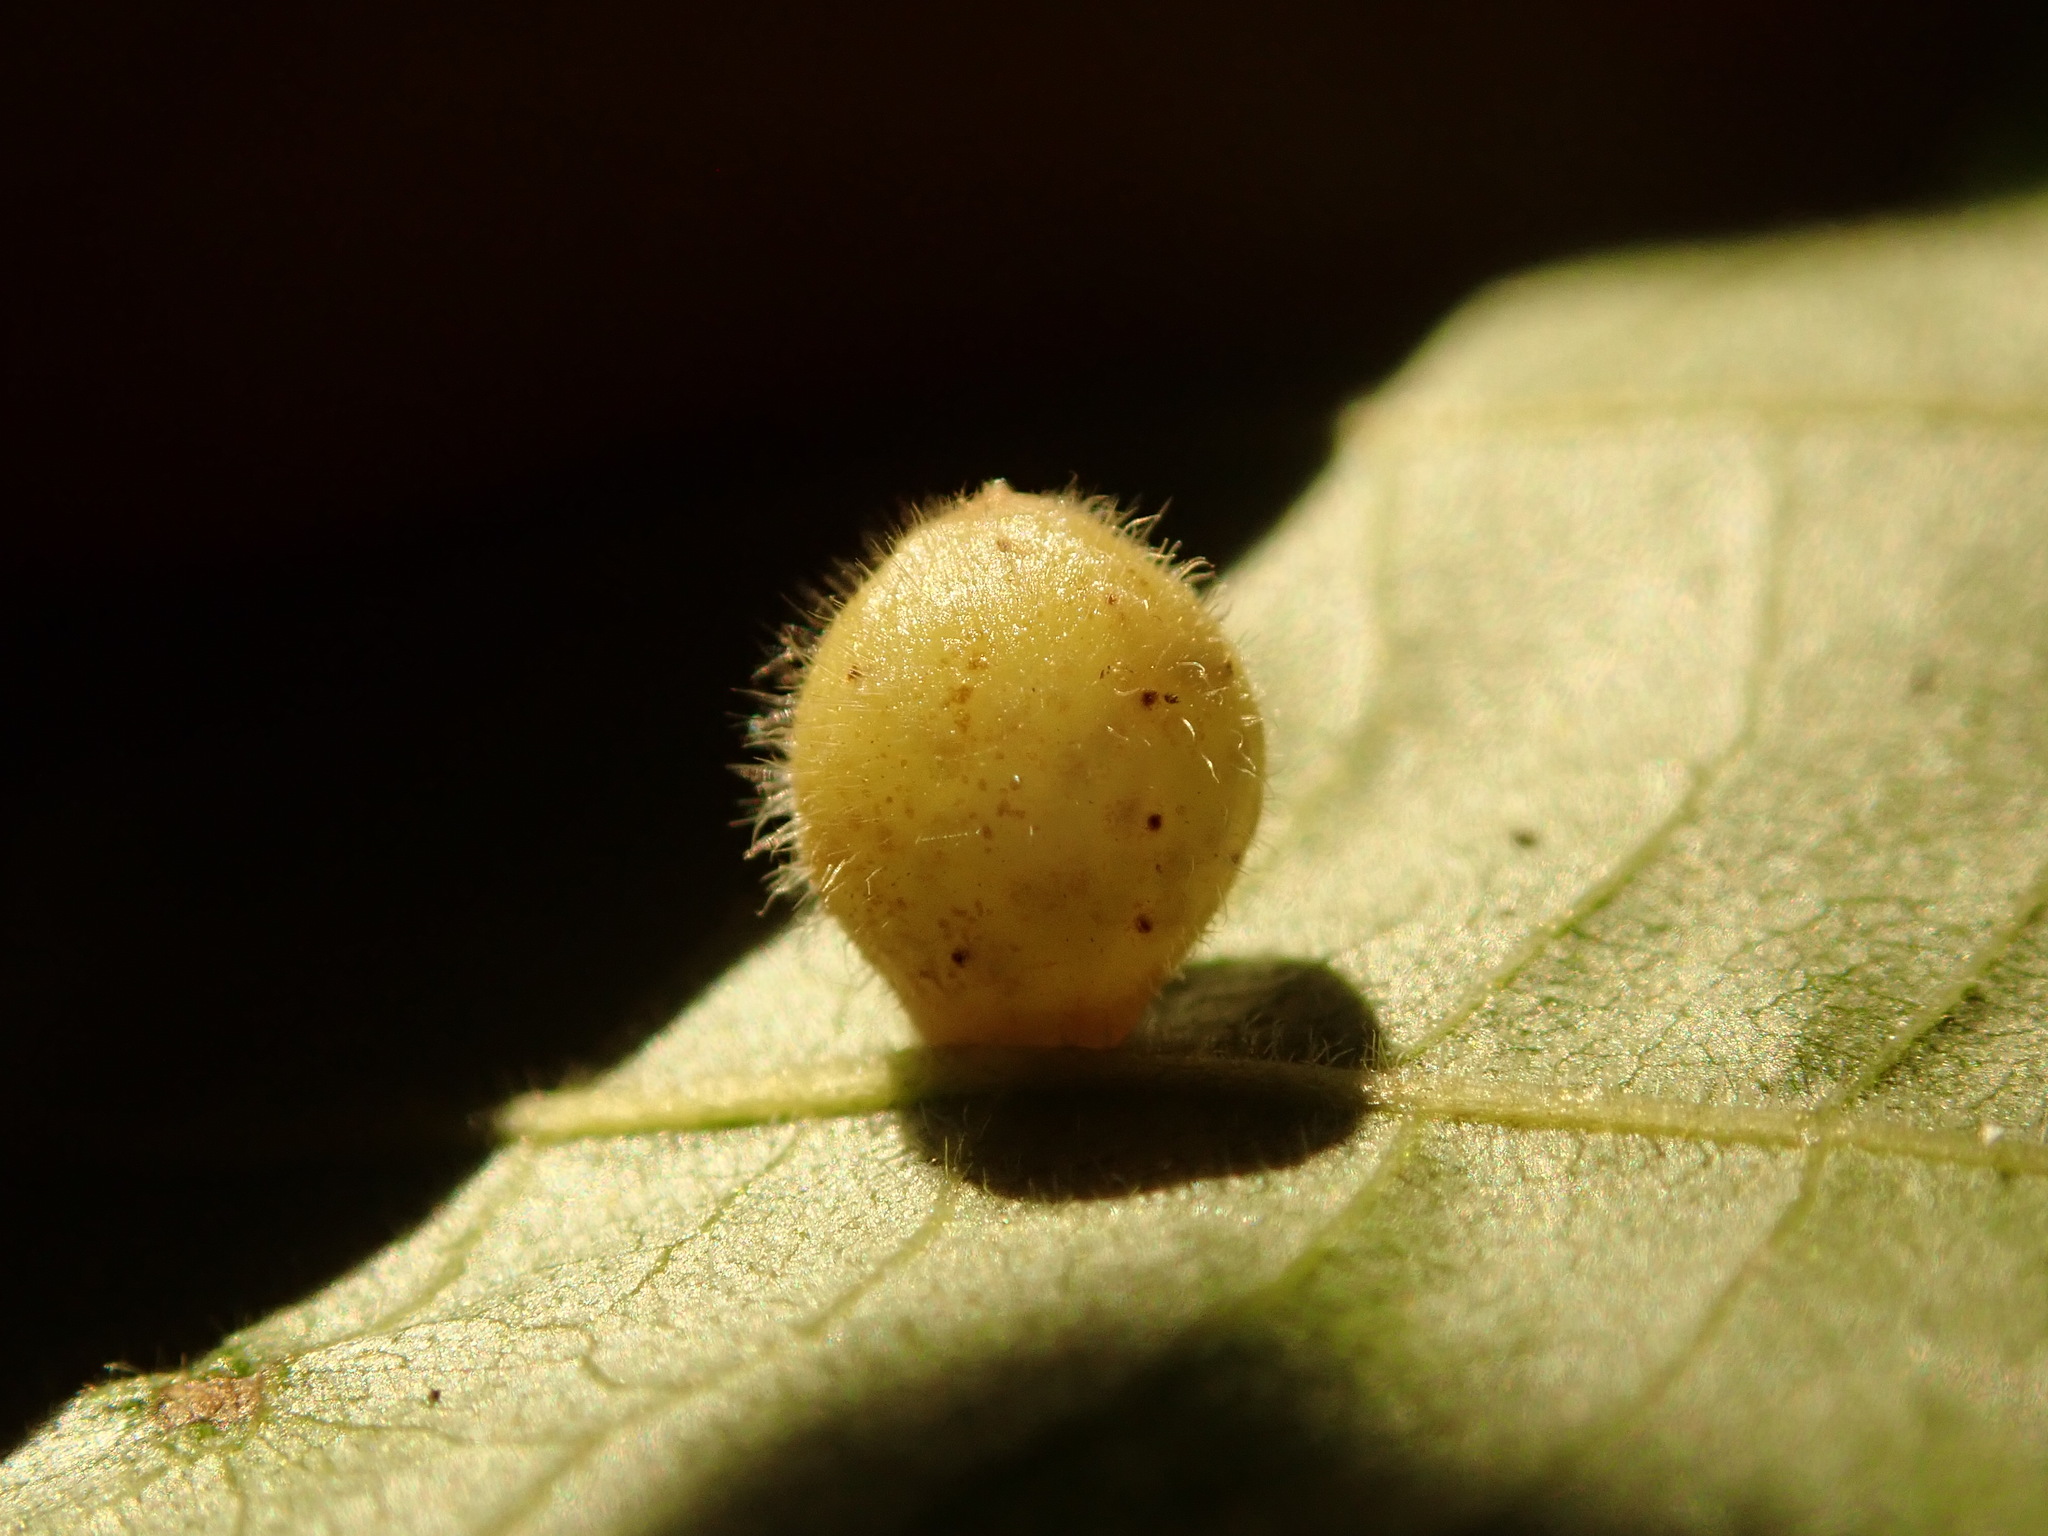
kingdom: Animalia
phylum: Arthropoda
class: Insecta
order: Diptera
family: Cecidomyiidae
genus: Caryomyia
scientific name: Caryomyia cilidolium
